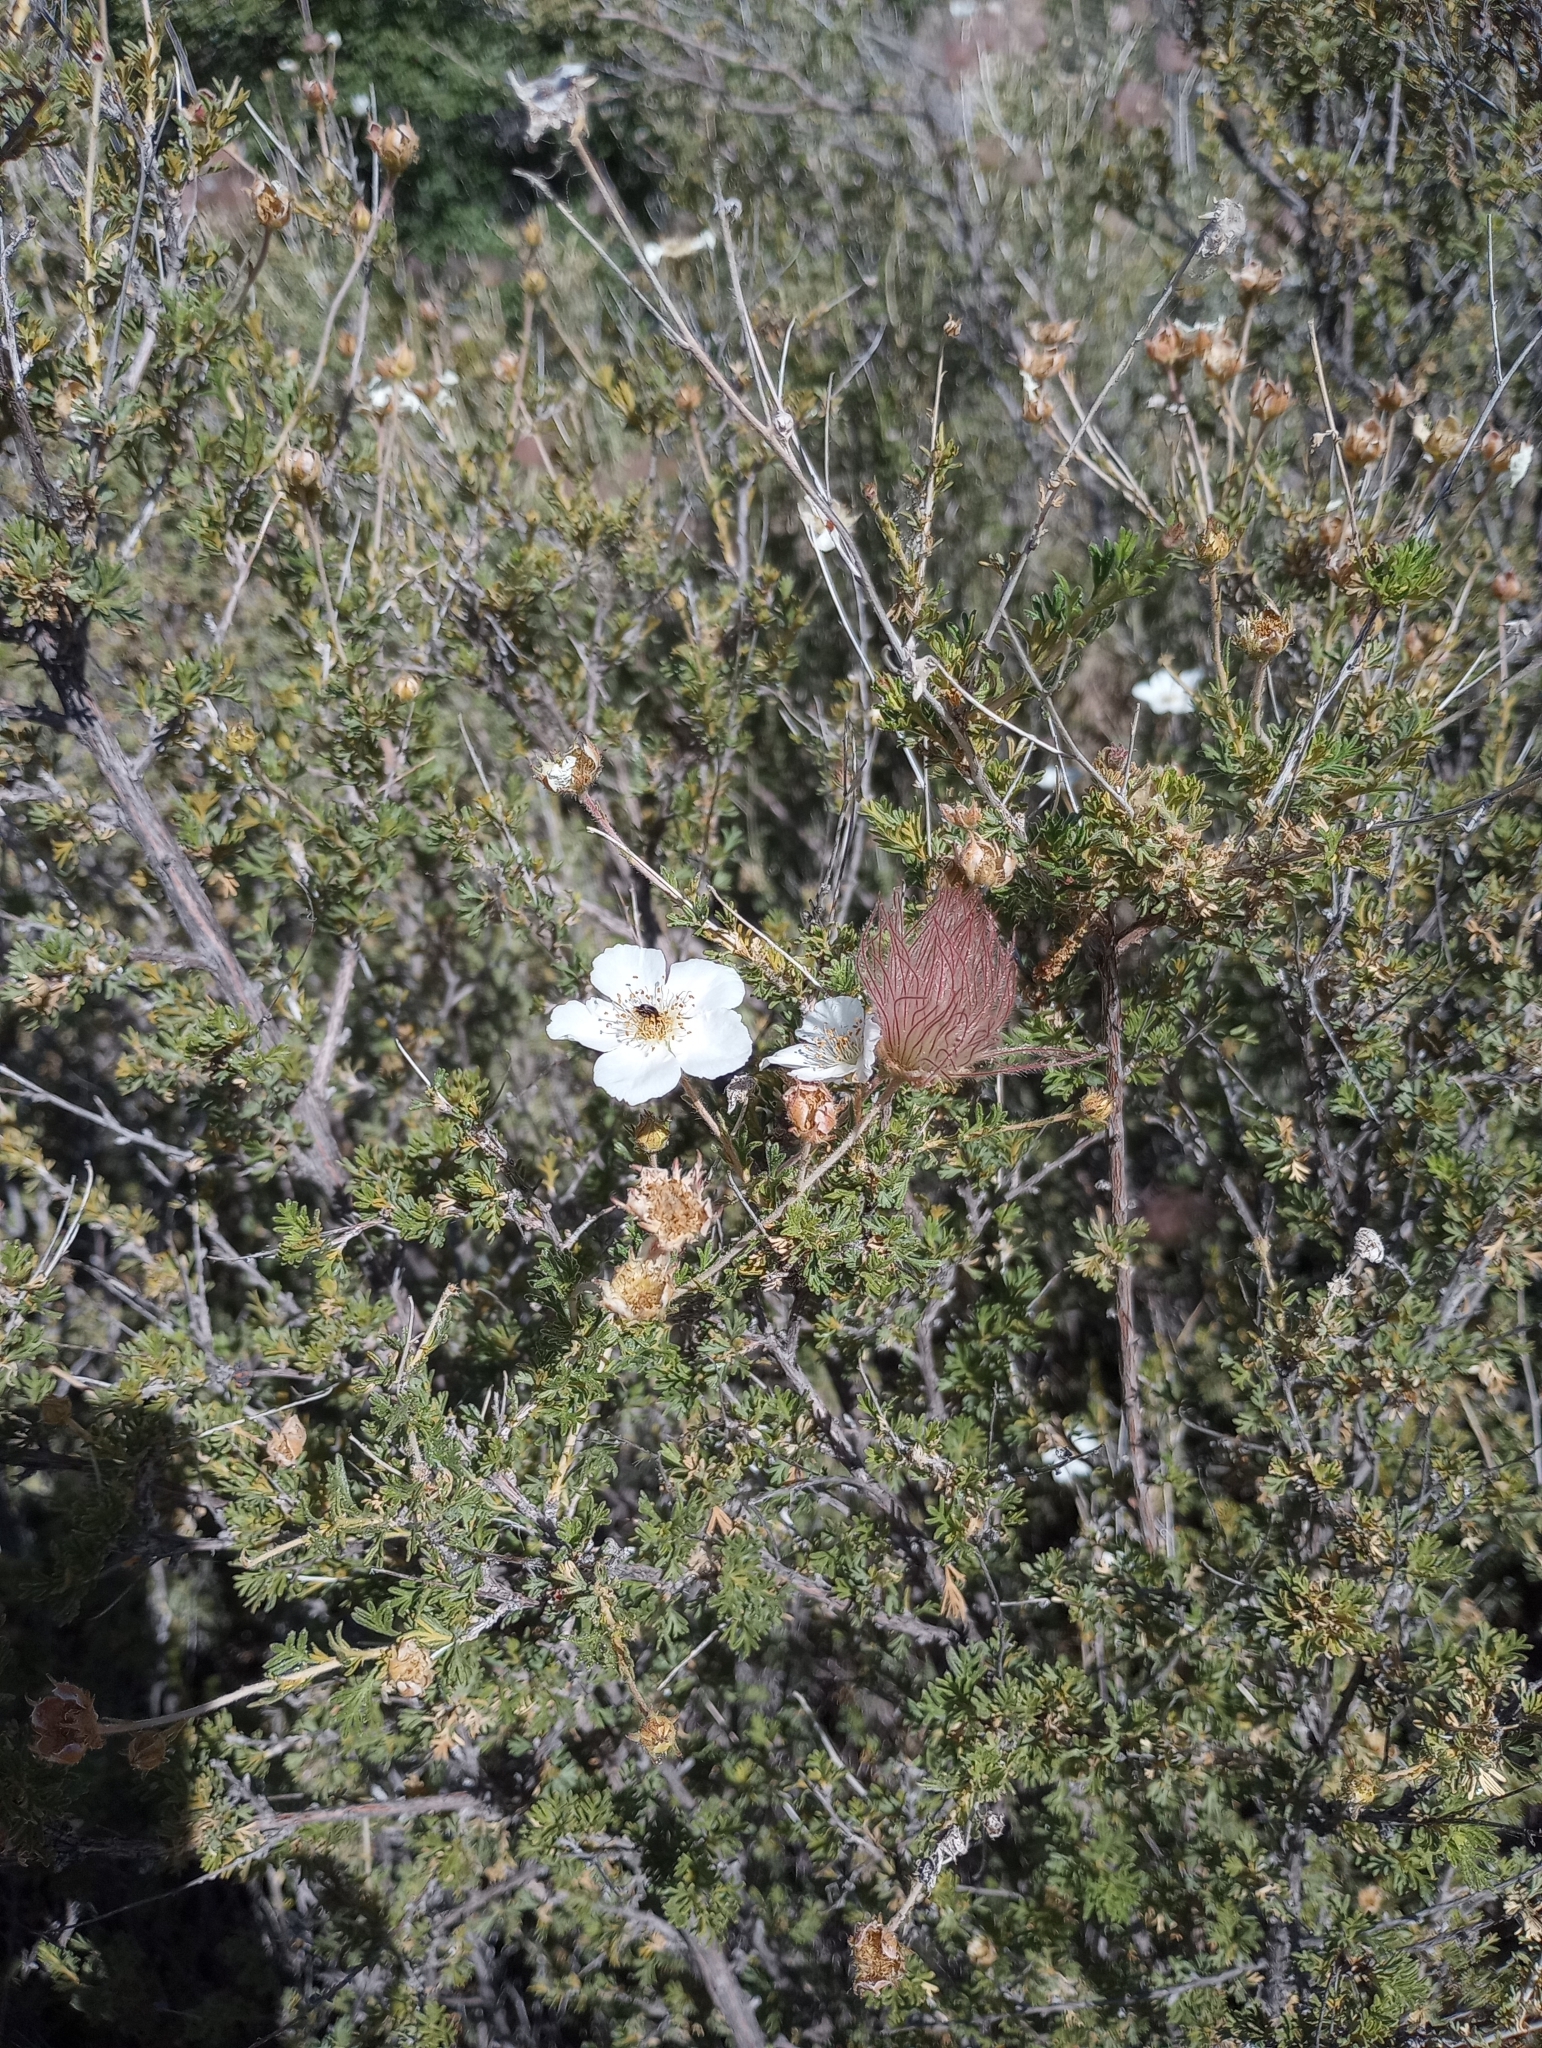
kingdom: Plantae
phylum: Tracheophyta
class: Magnoliopsida
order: Rosales
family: Rosaceae
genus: Fallugia
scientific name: Fallugia paradoxa
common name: Apache-plume
